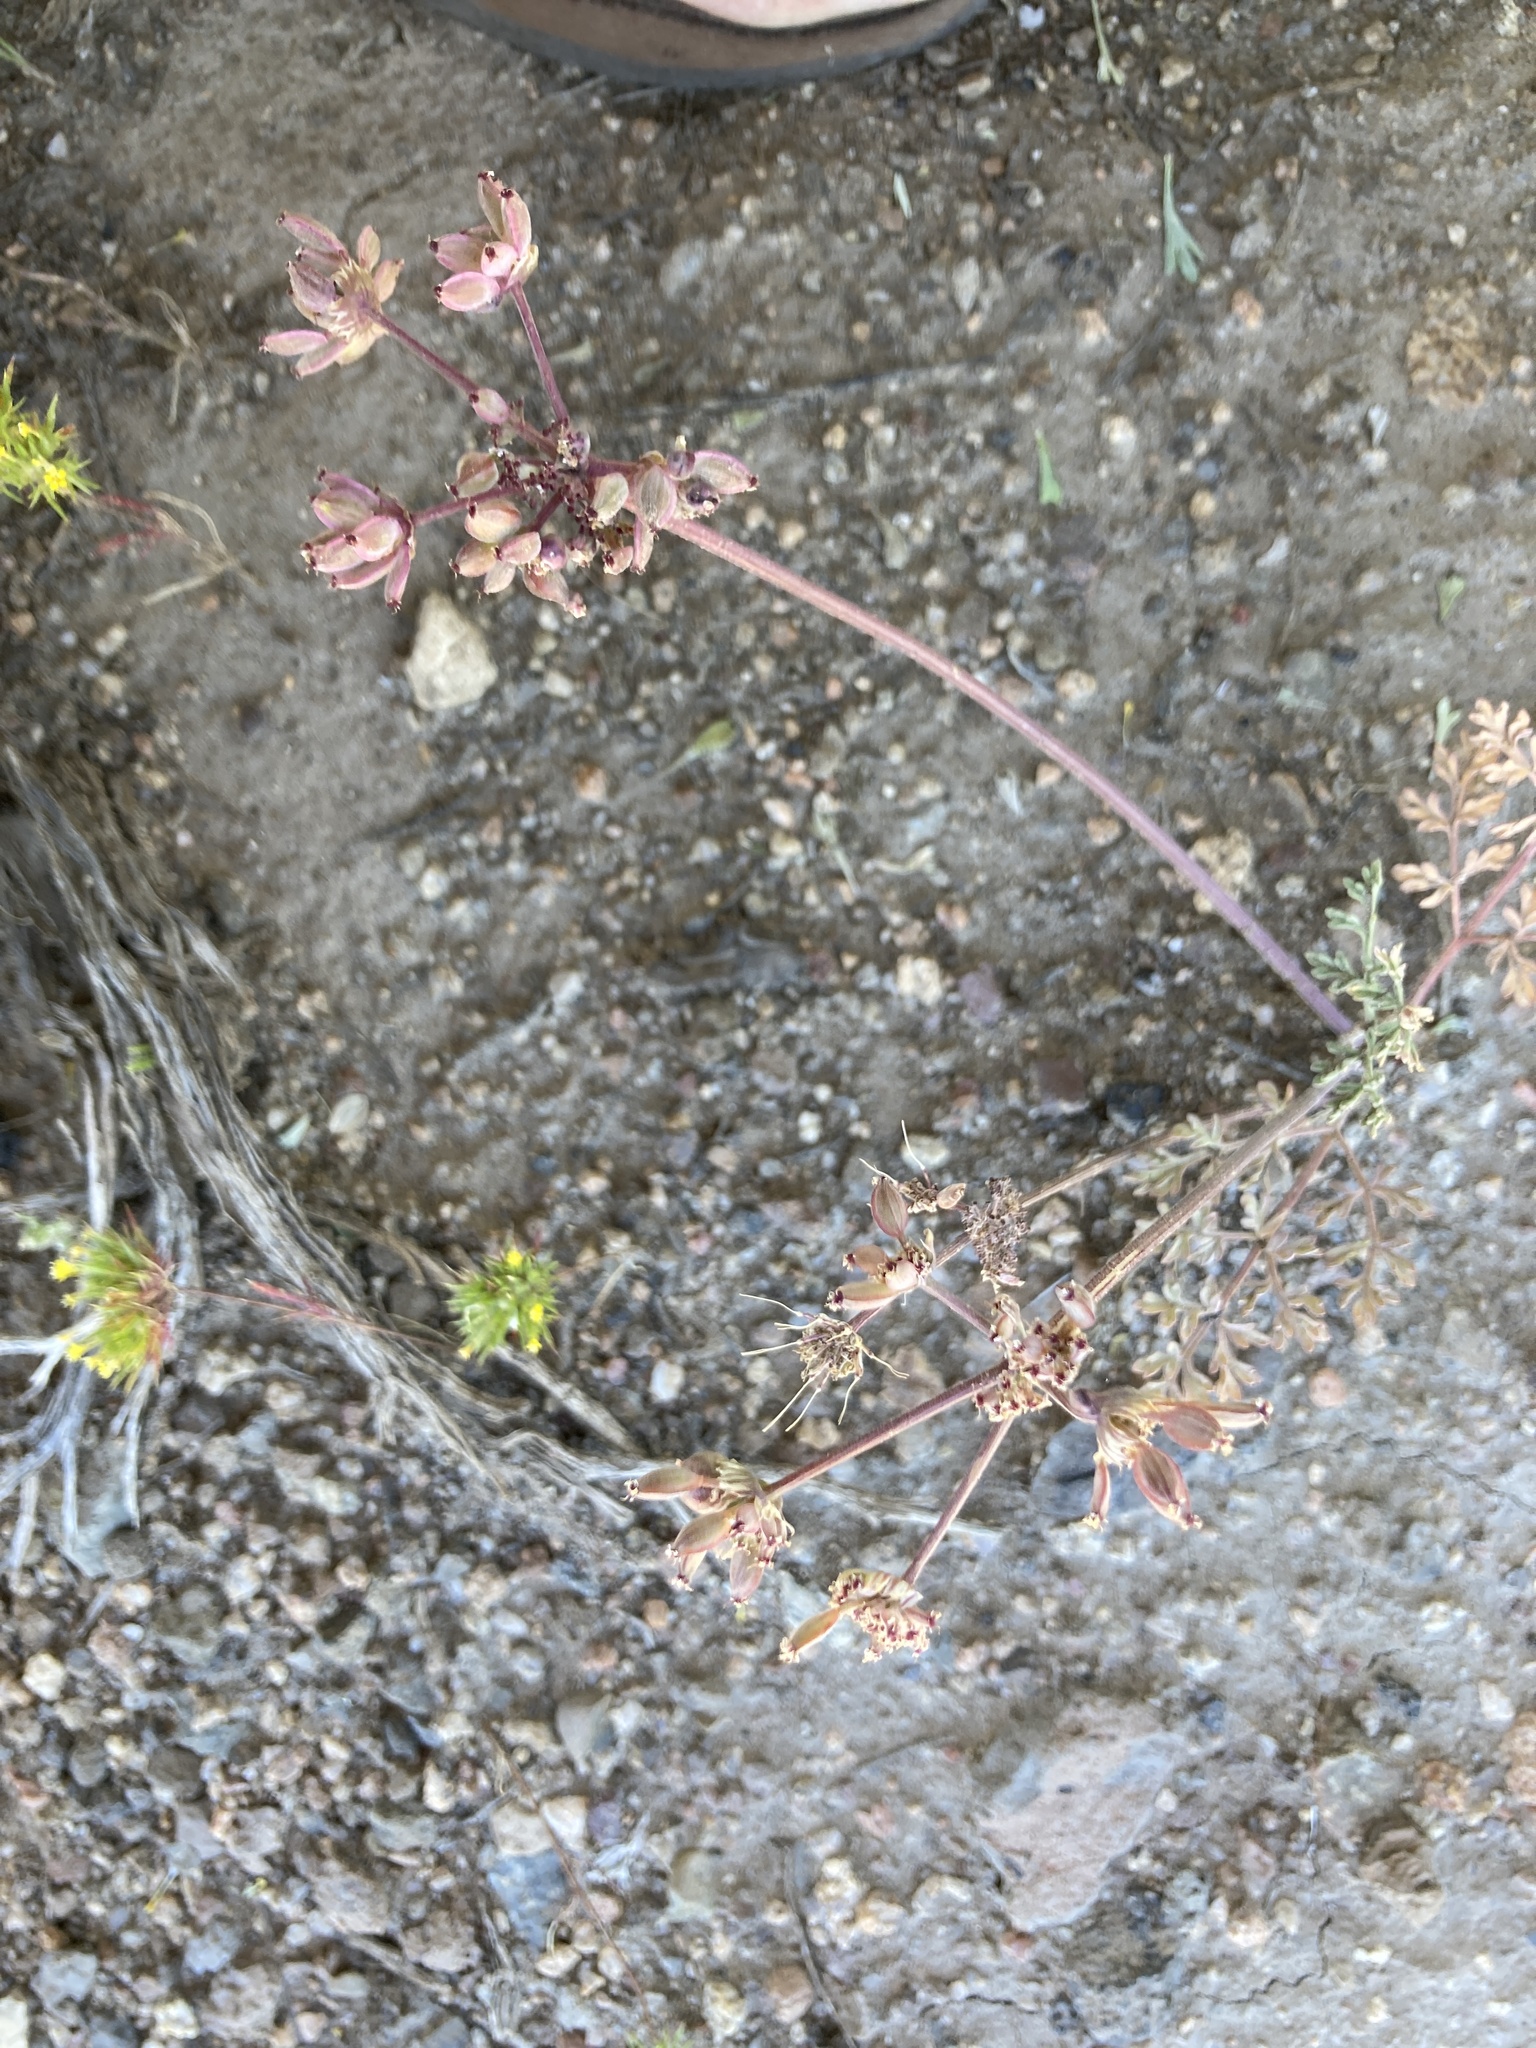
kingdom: Plantae
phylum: Tracheophyta
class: Magnoliopsida
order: Apiales
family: Apiaceae
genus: Lomatium
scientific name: Lomatium nevadense
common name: Nevada lomatium
